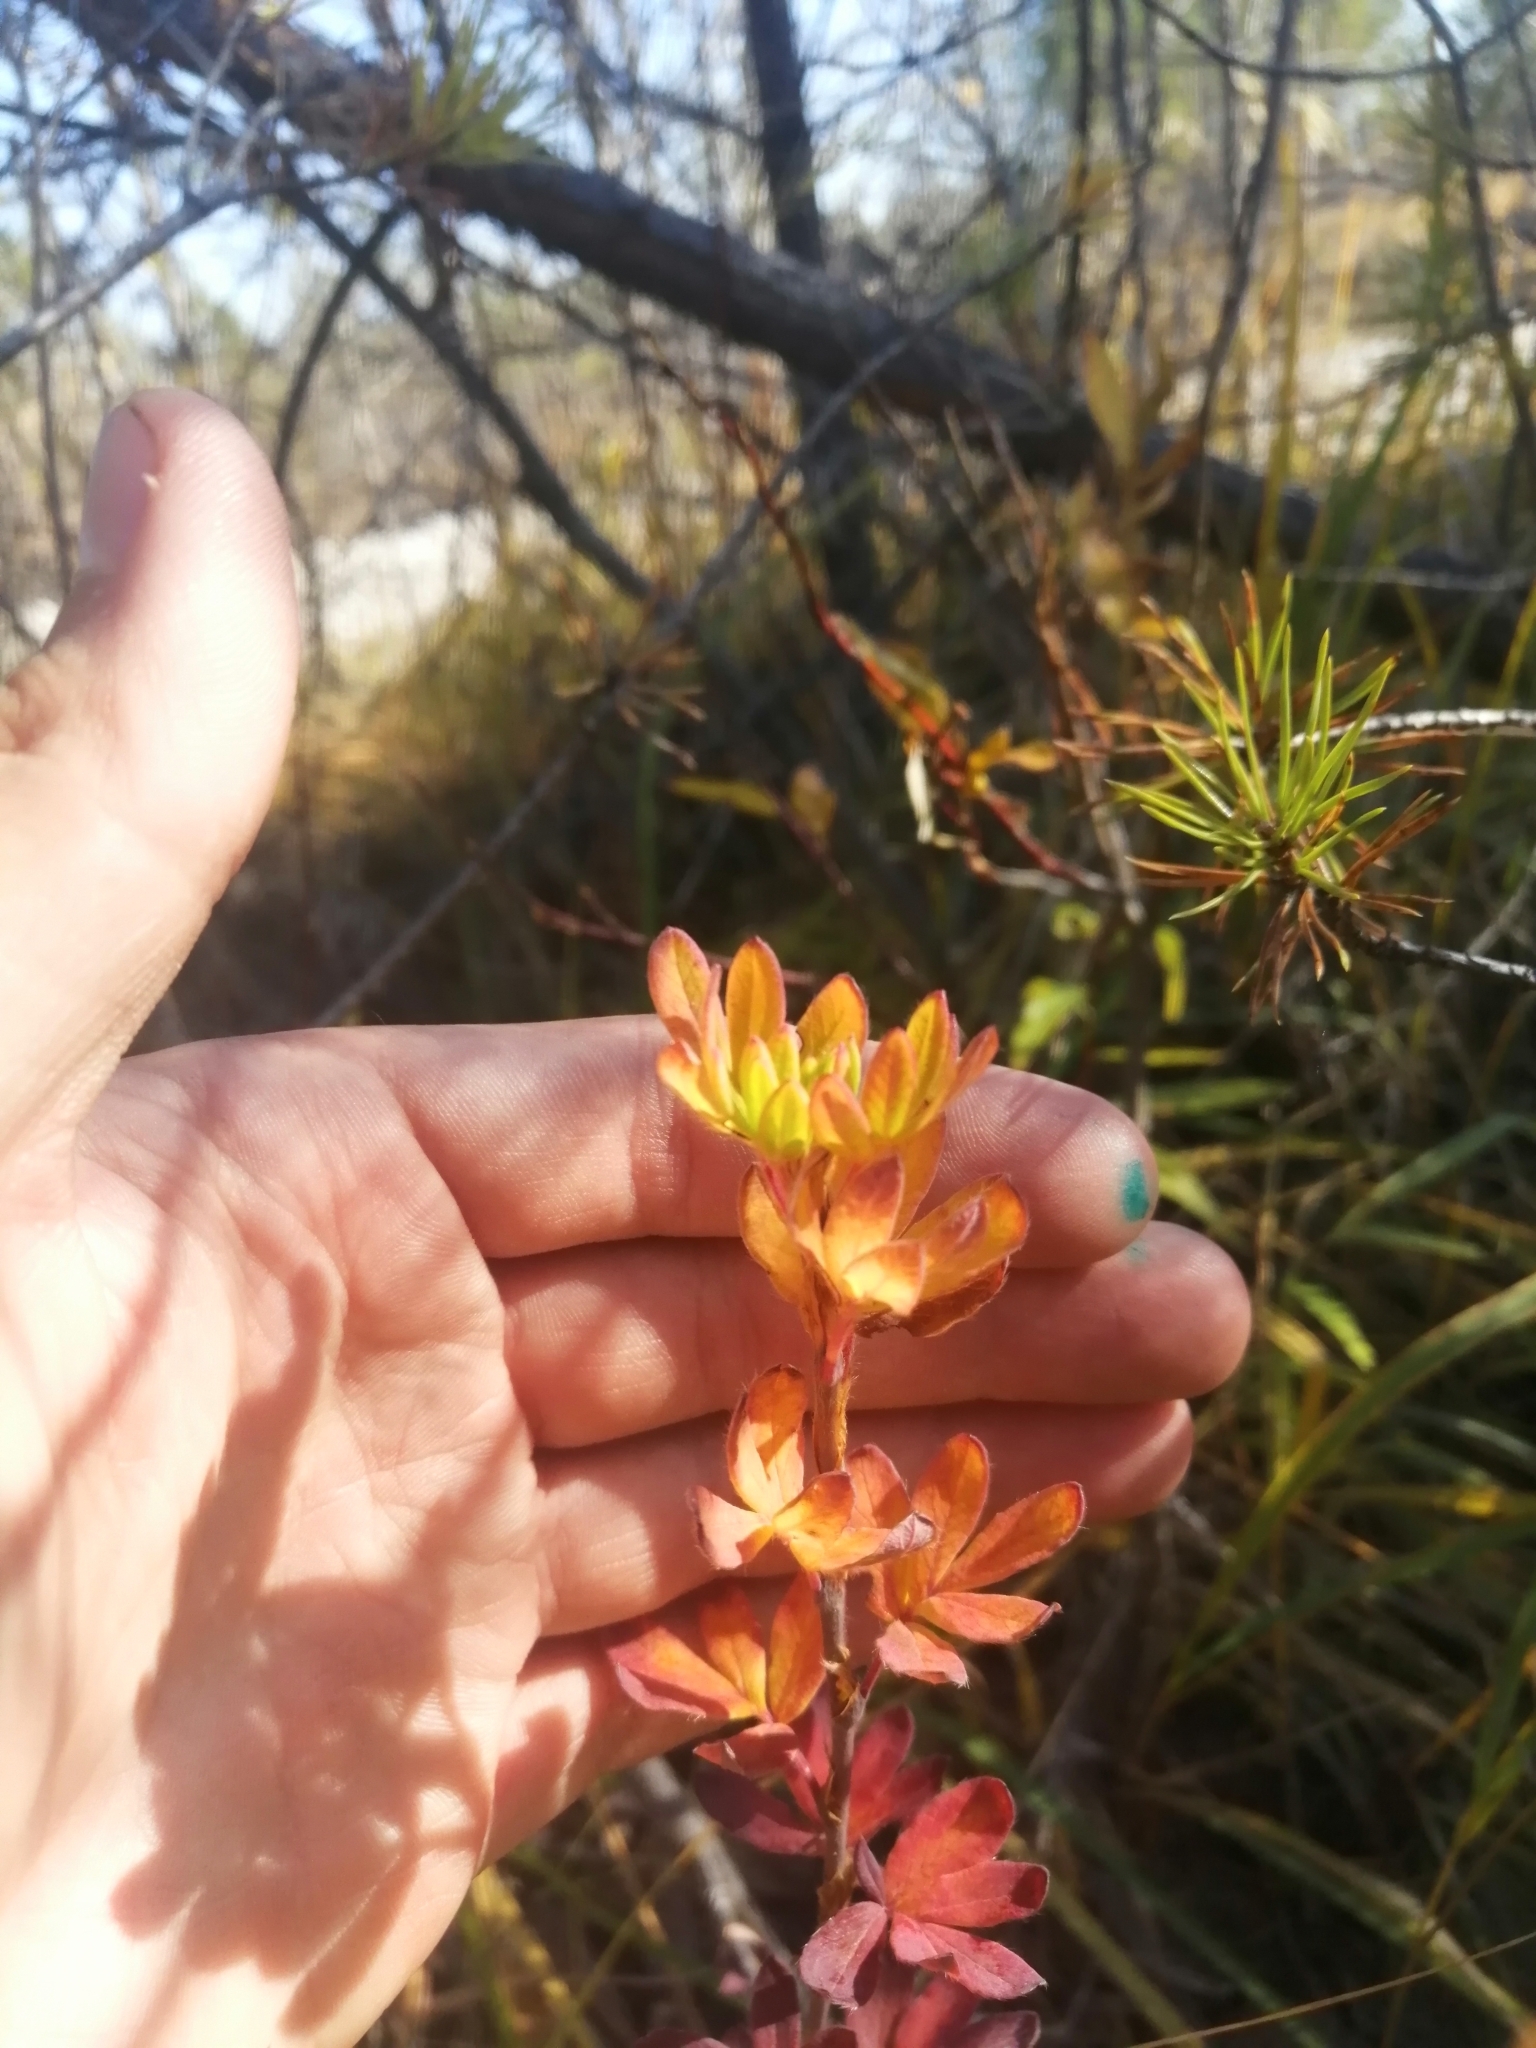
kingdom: Plantae
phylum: Tracheophyta
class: Magnoliopsida
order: Rosales
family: Rosaceae
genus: Dasiphora
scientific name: Dasiphora fruticosa
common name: Shrubby cinquefoil
